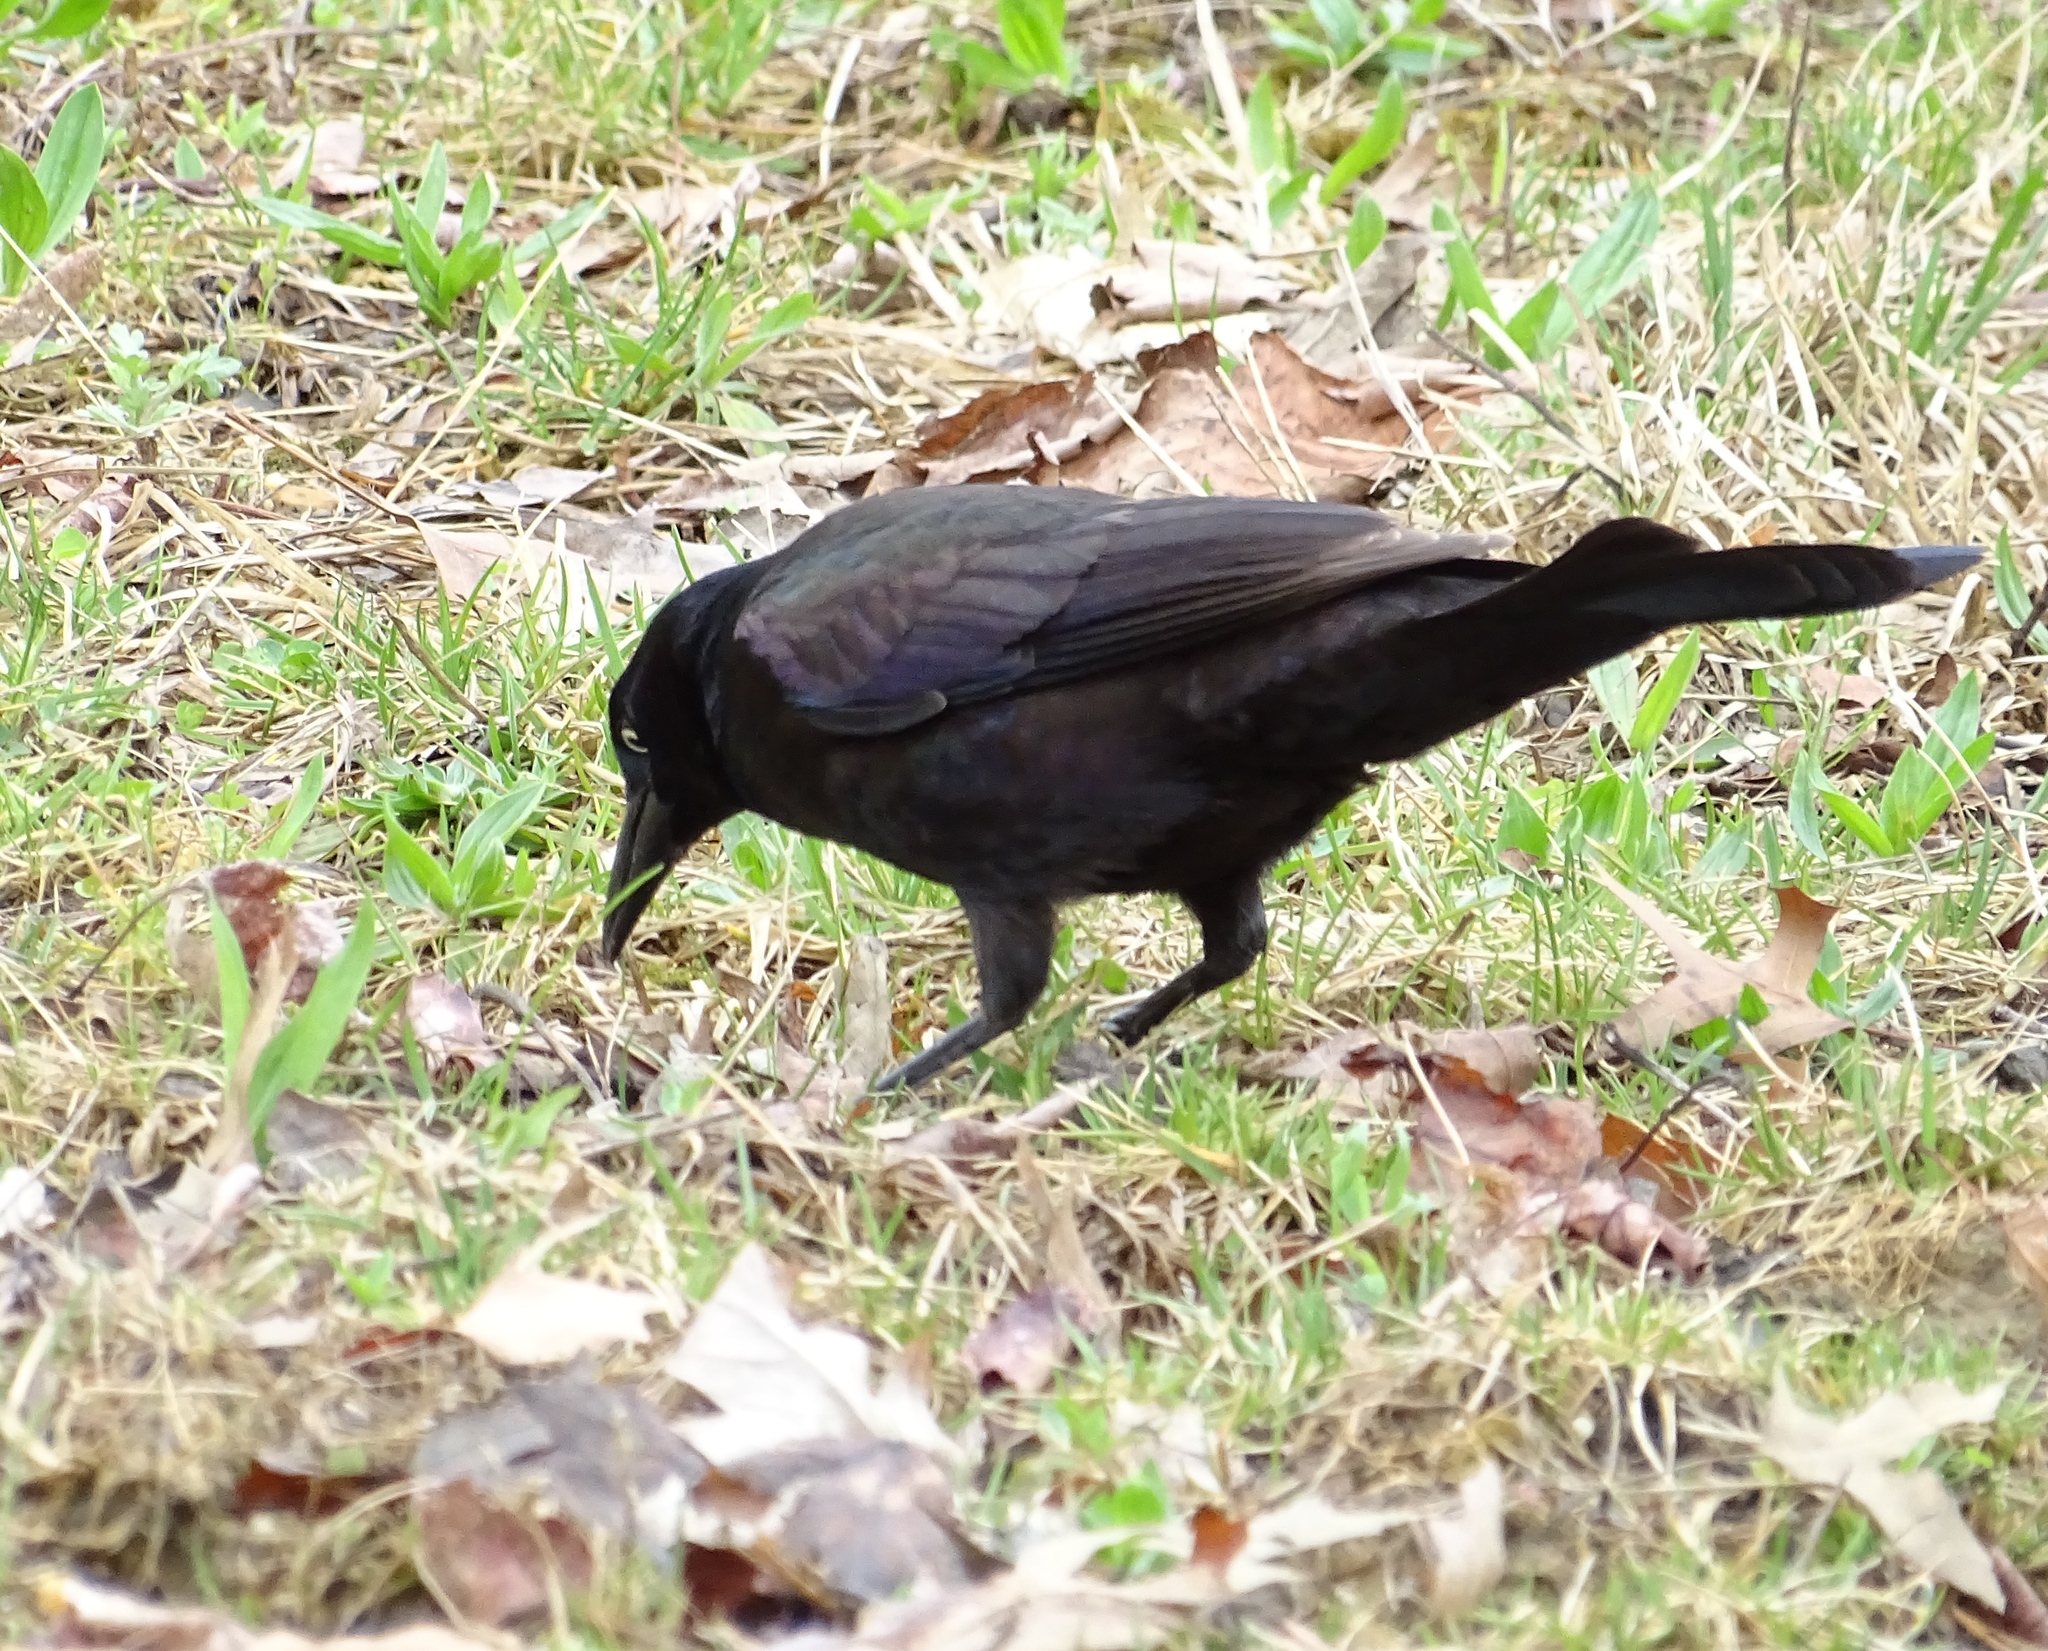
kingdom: Animalia
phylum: Chordata
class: Aves
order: Passeriformes
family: Icteridae
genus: Quiscalus
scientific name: Quiscalus quiscula
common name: Common grackle
